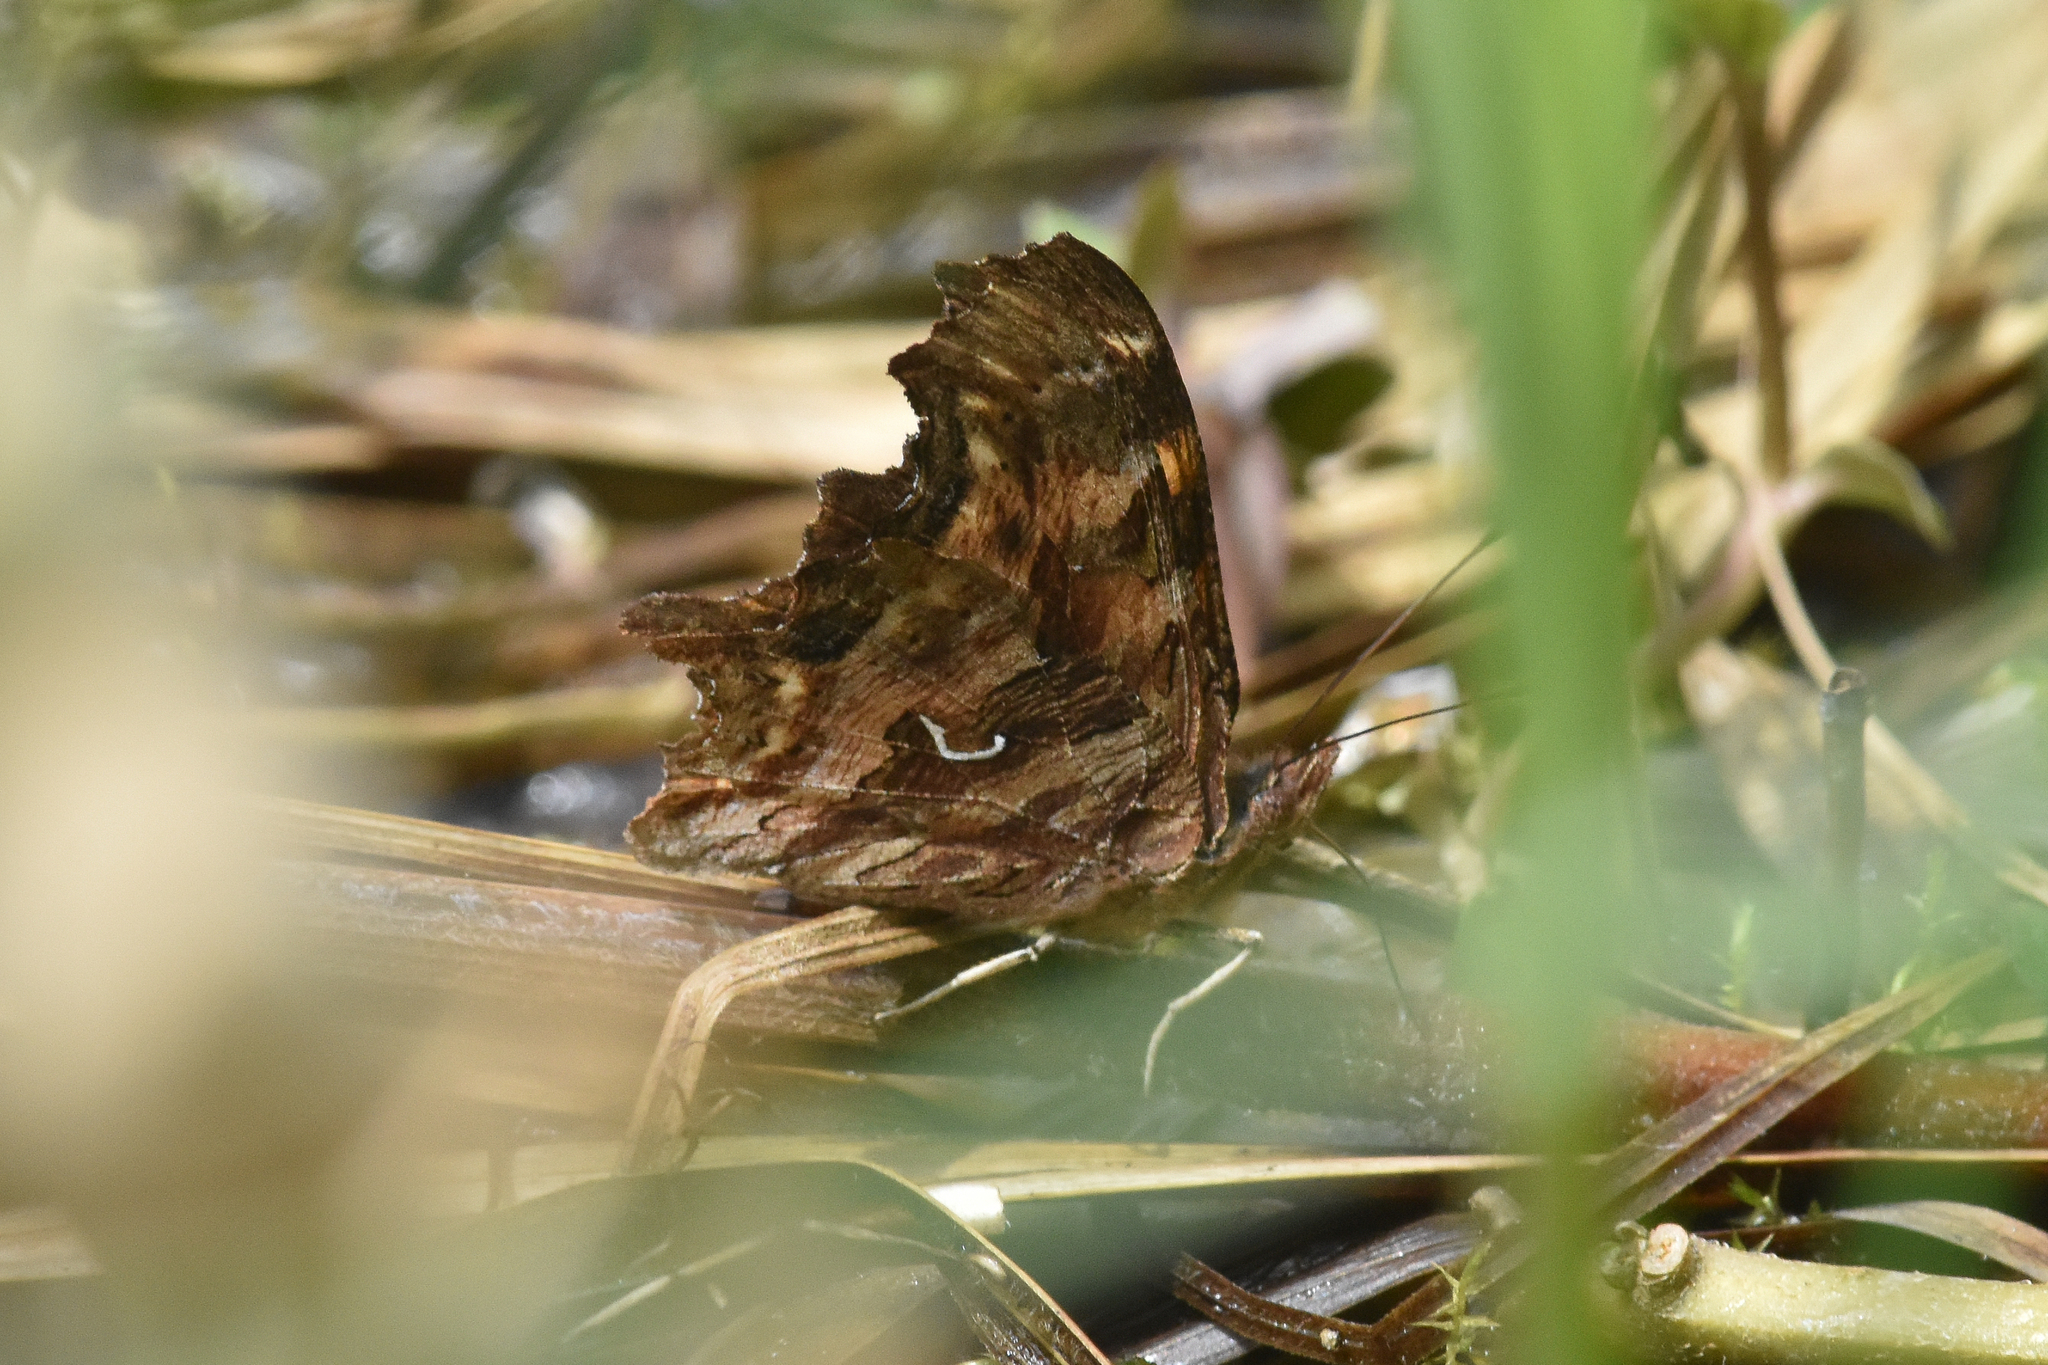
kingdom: Animalia
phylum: Arthropoda
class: Insecta
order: Lepidoptera
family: Nymphalidae
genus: Polygonia
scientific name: Polygonia satyrus
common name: Satyr angle wing
